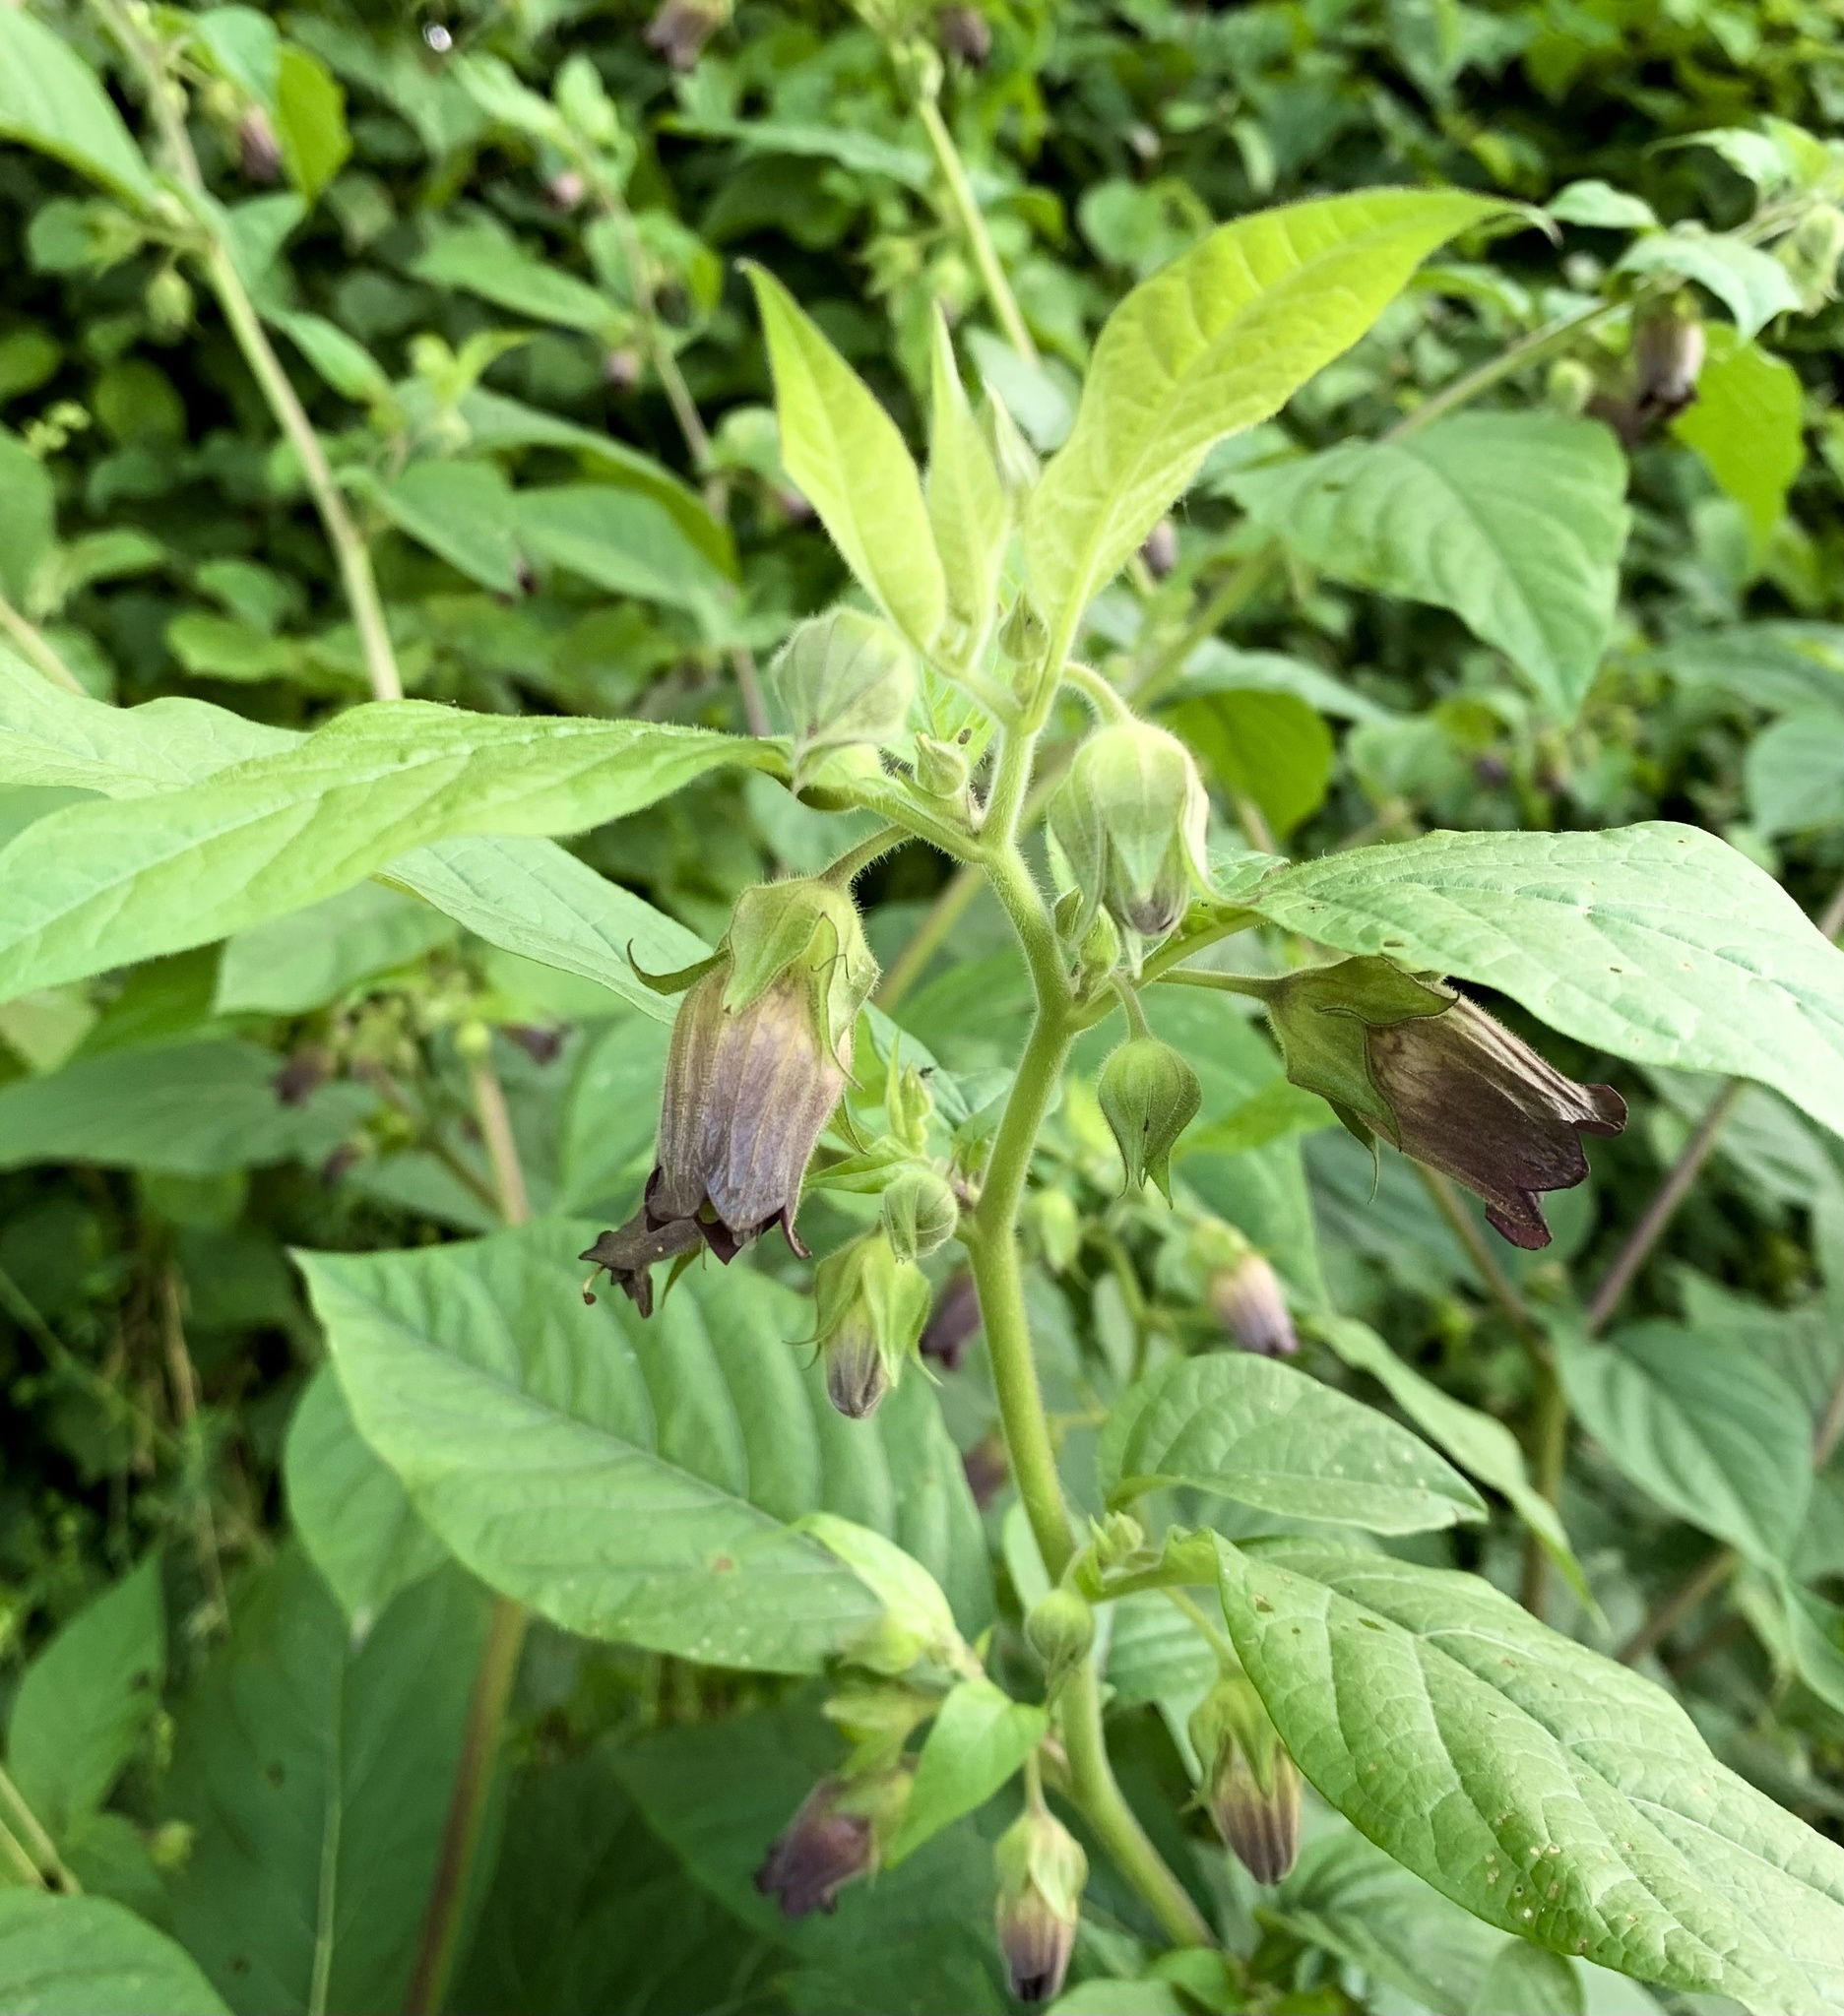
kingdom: Plantae
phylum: Tracheophyta
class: Magnoliopsida
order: Solanales
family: Solanaceae
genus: Atropa
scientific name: Atropa belladonna
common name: Deadly nightshade
